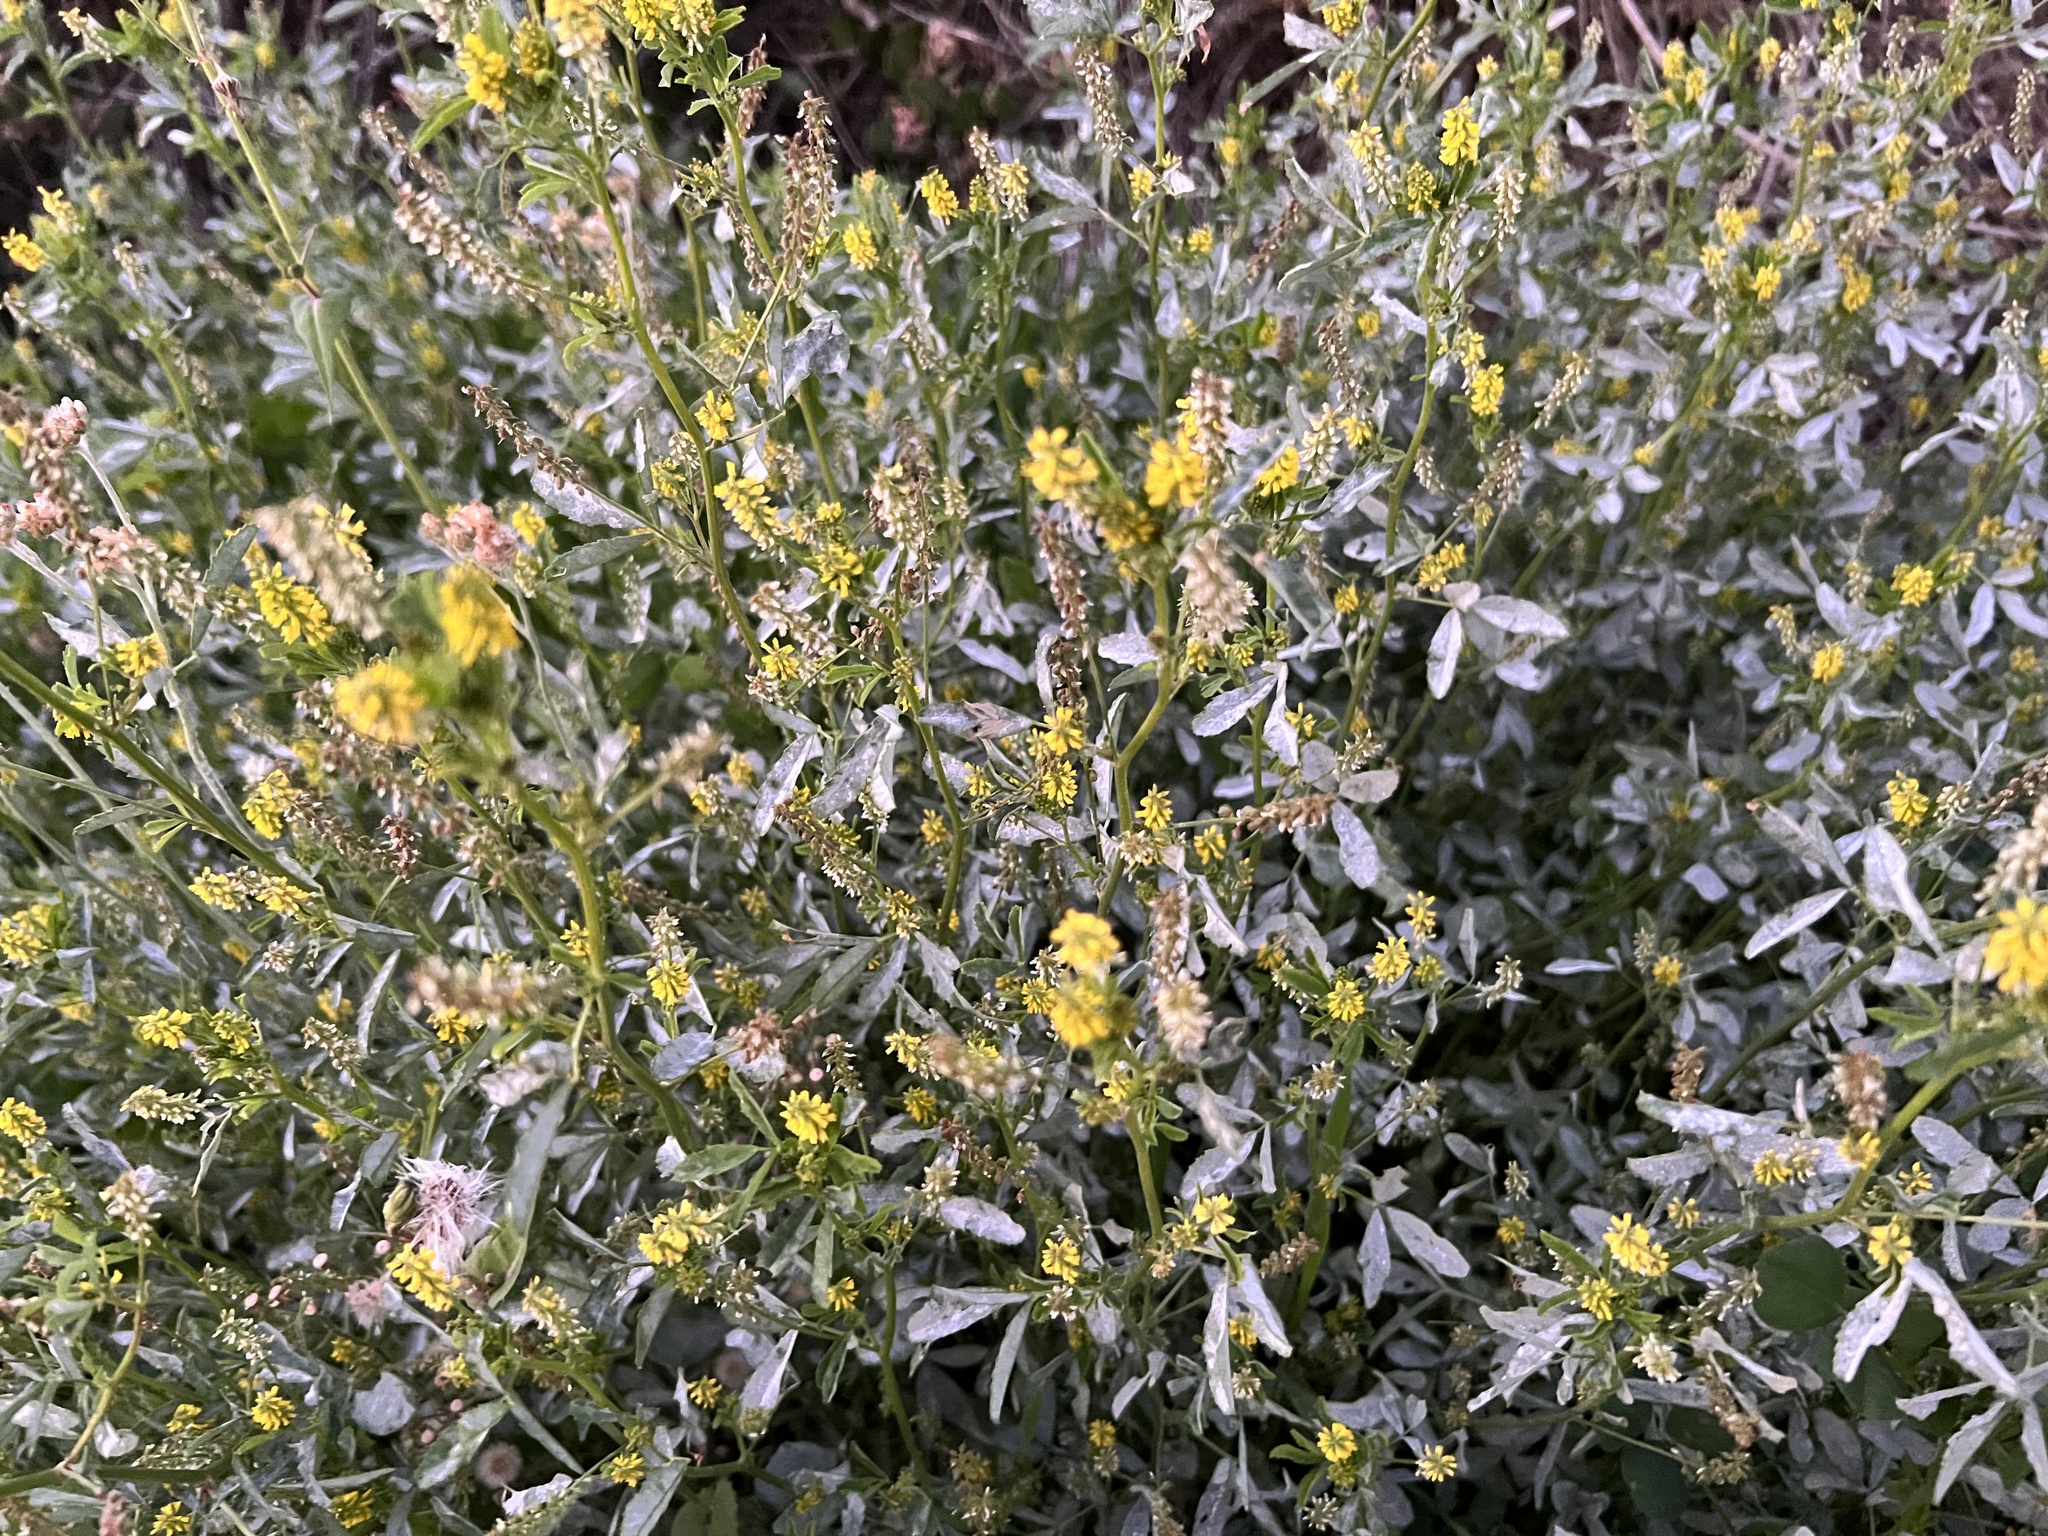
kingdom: Plantae
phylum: Tracheophyta
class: Magnoliopsida
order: Fabales
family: Fabaceae
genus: Melilotus
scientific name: Melilotus indicus
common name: Small melilot
